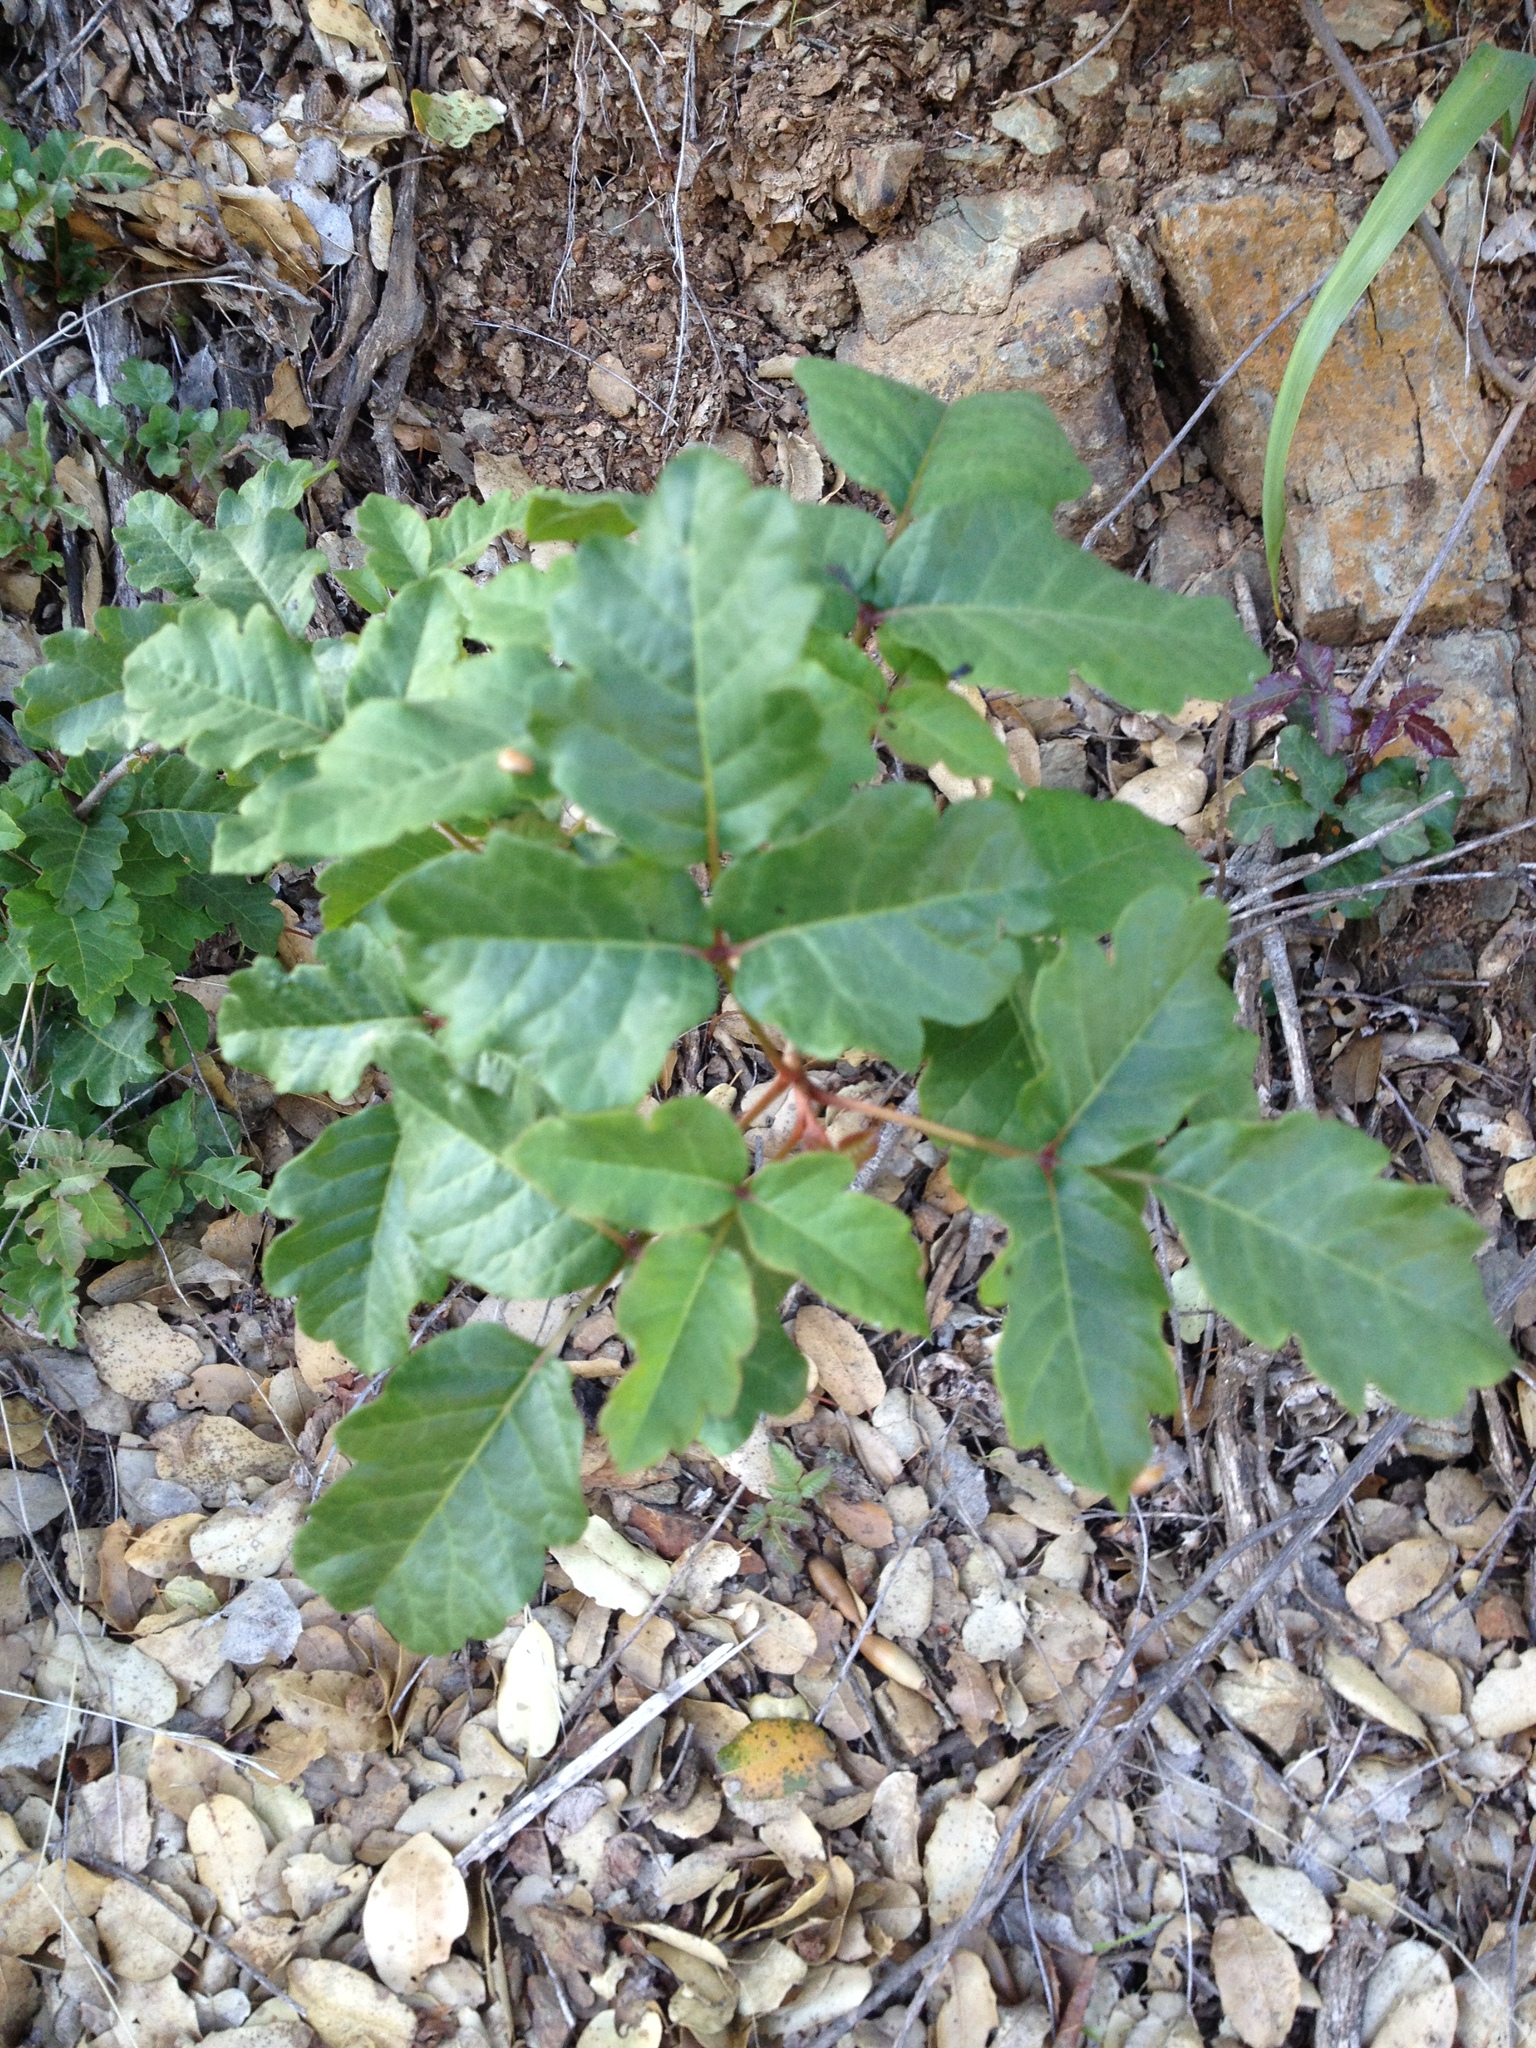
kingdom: Plantae
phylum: Tracheophyta
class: Magnoliopsida
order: Sapindales
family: Anacardiaceae
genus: Toxicodendron
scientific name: Toxicodendron diversilobum
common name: Pacific poison-oak
